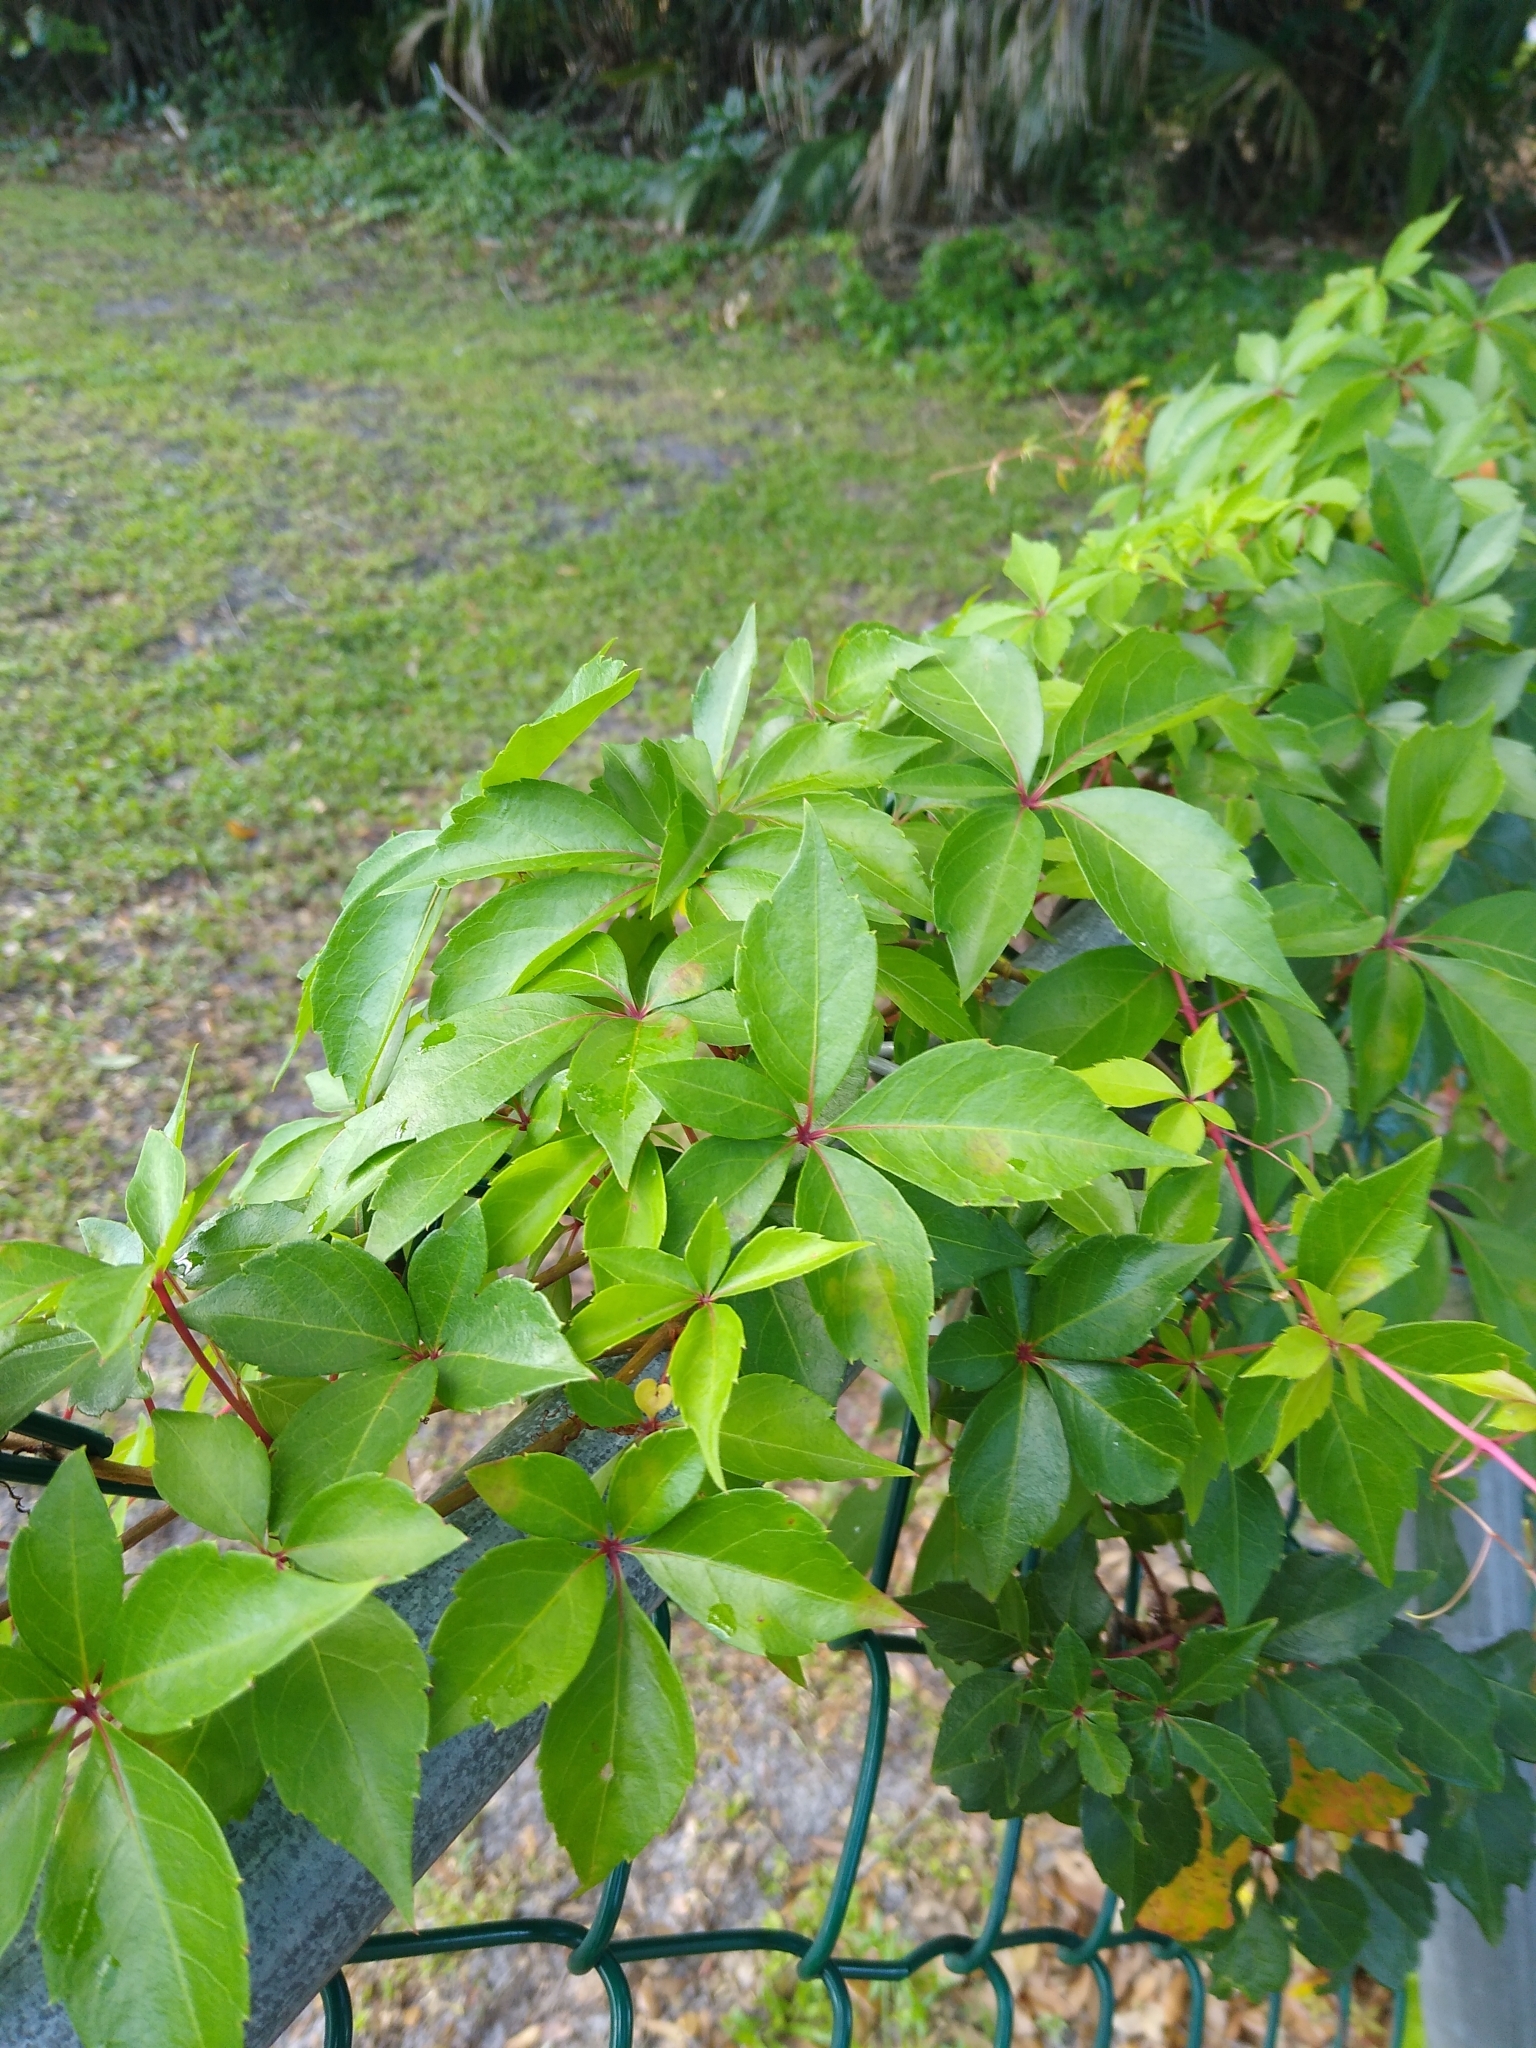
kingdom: Plantae
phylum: Tracheophyta
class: Magnoliopsida
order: Vitales
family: Vitaceae
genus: Parthenocissus
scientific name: Parthenocissus quinquefolia
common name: Virginia-creeper
